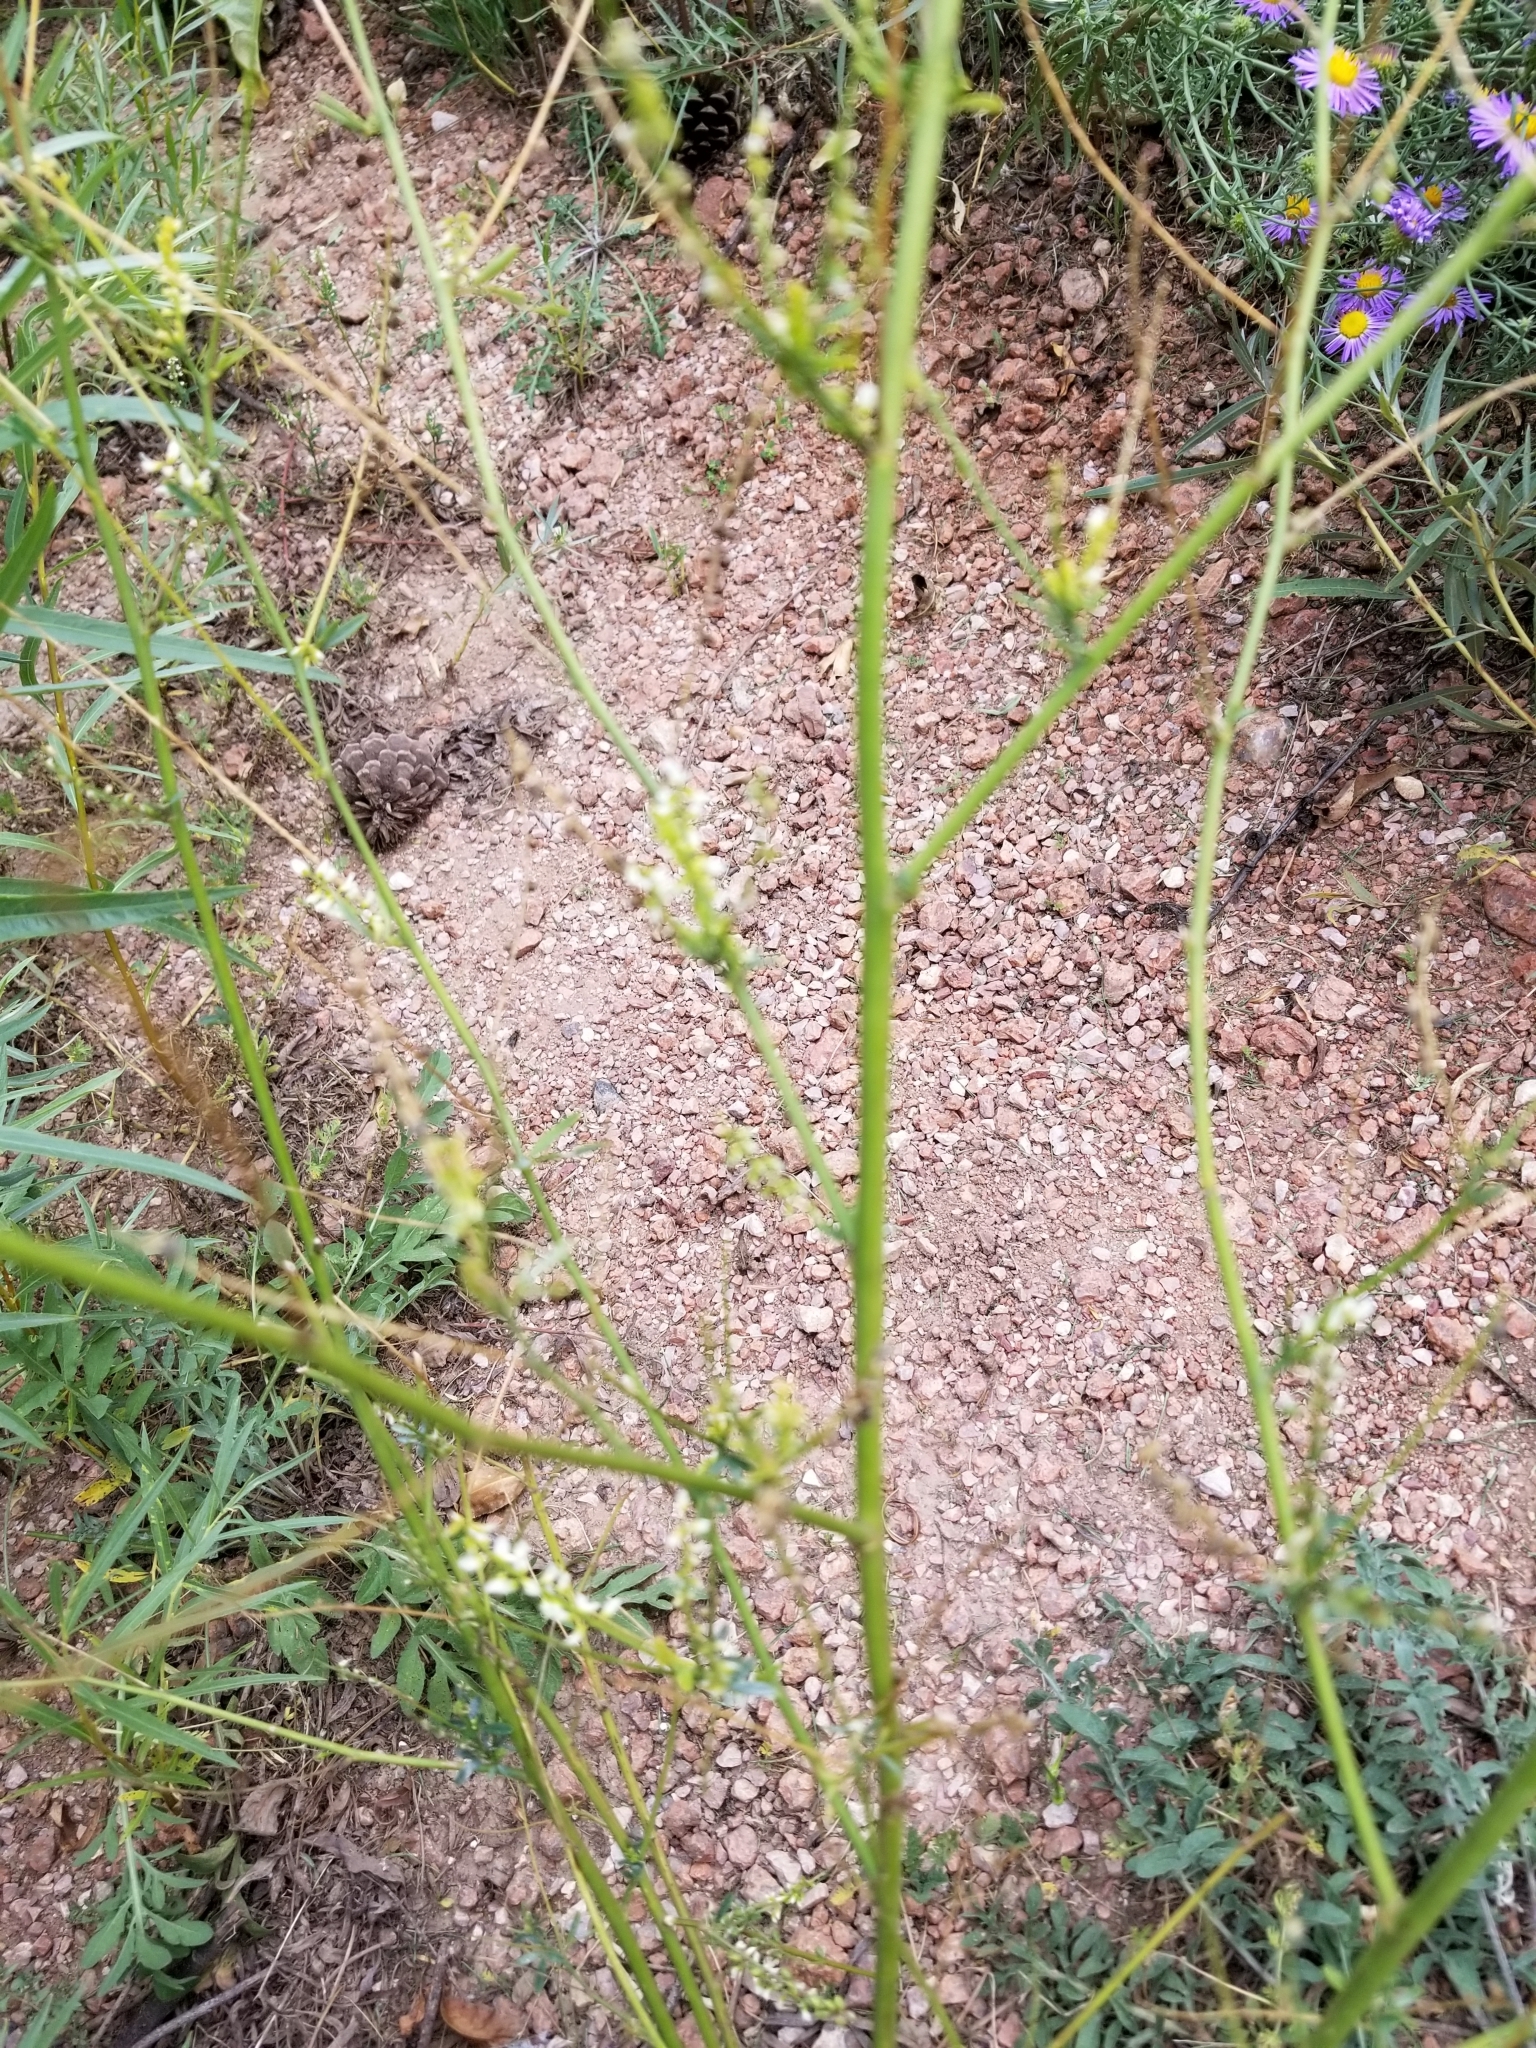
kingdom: Plantae
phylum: Tracheophyta
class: Magnoliopsida
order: Fabales
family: Fabaceae
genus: Melilotus
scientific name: Melilotus albus
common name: White melilot
